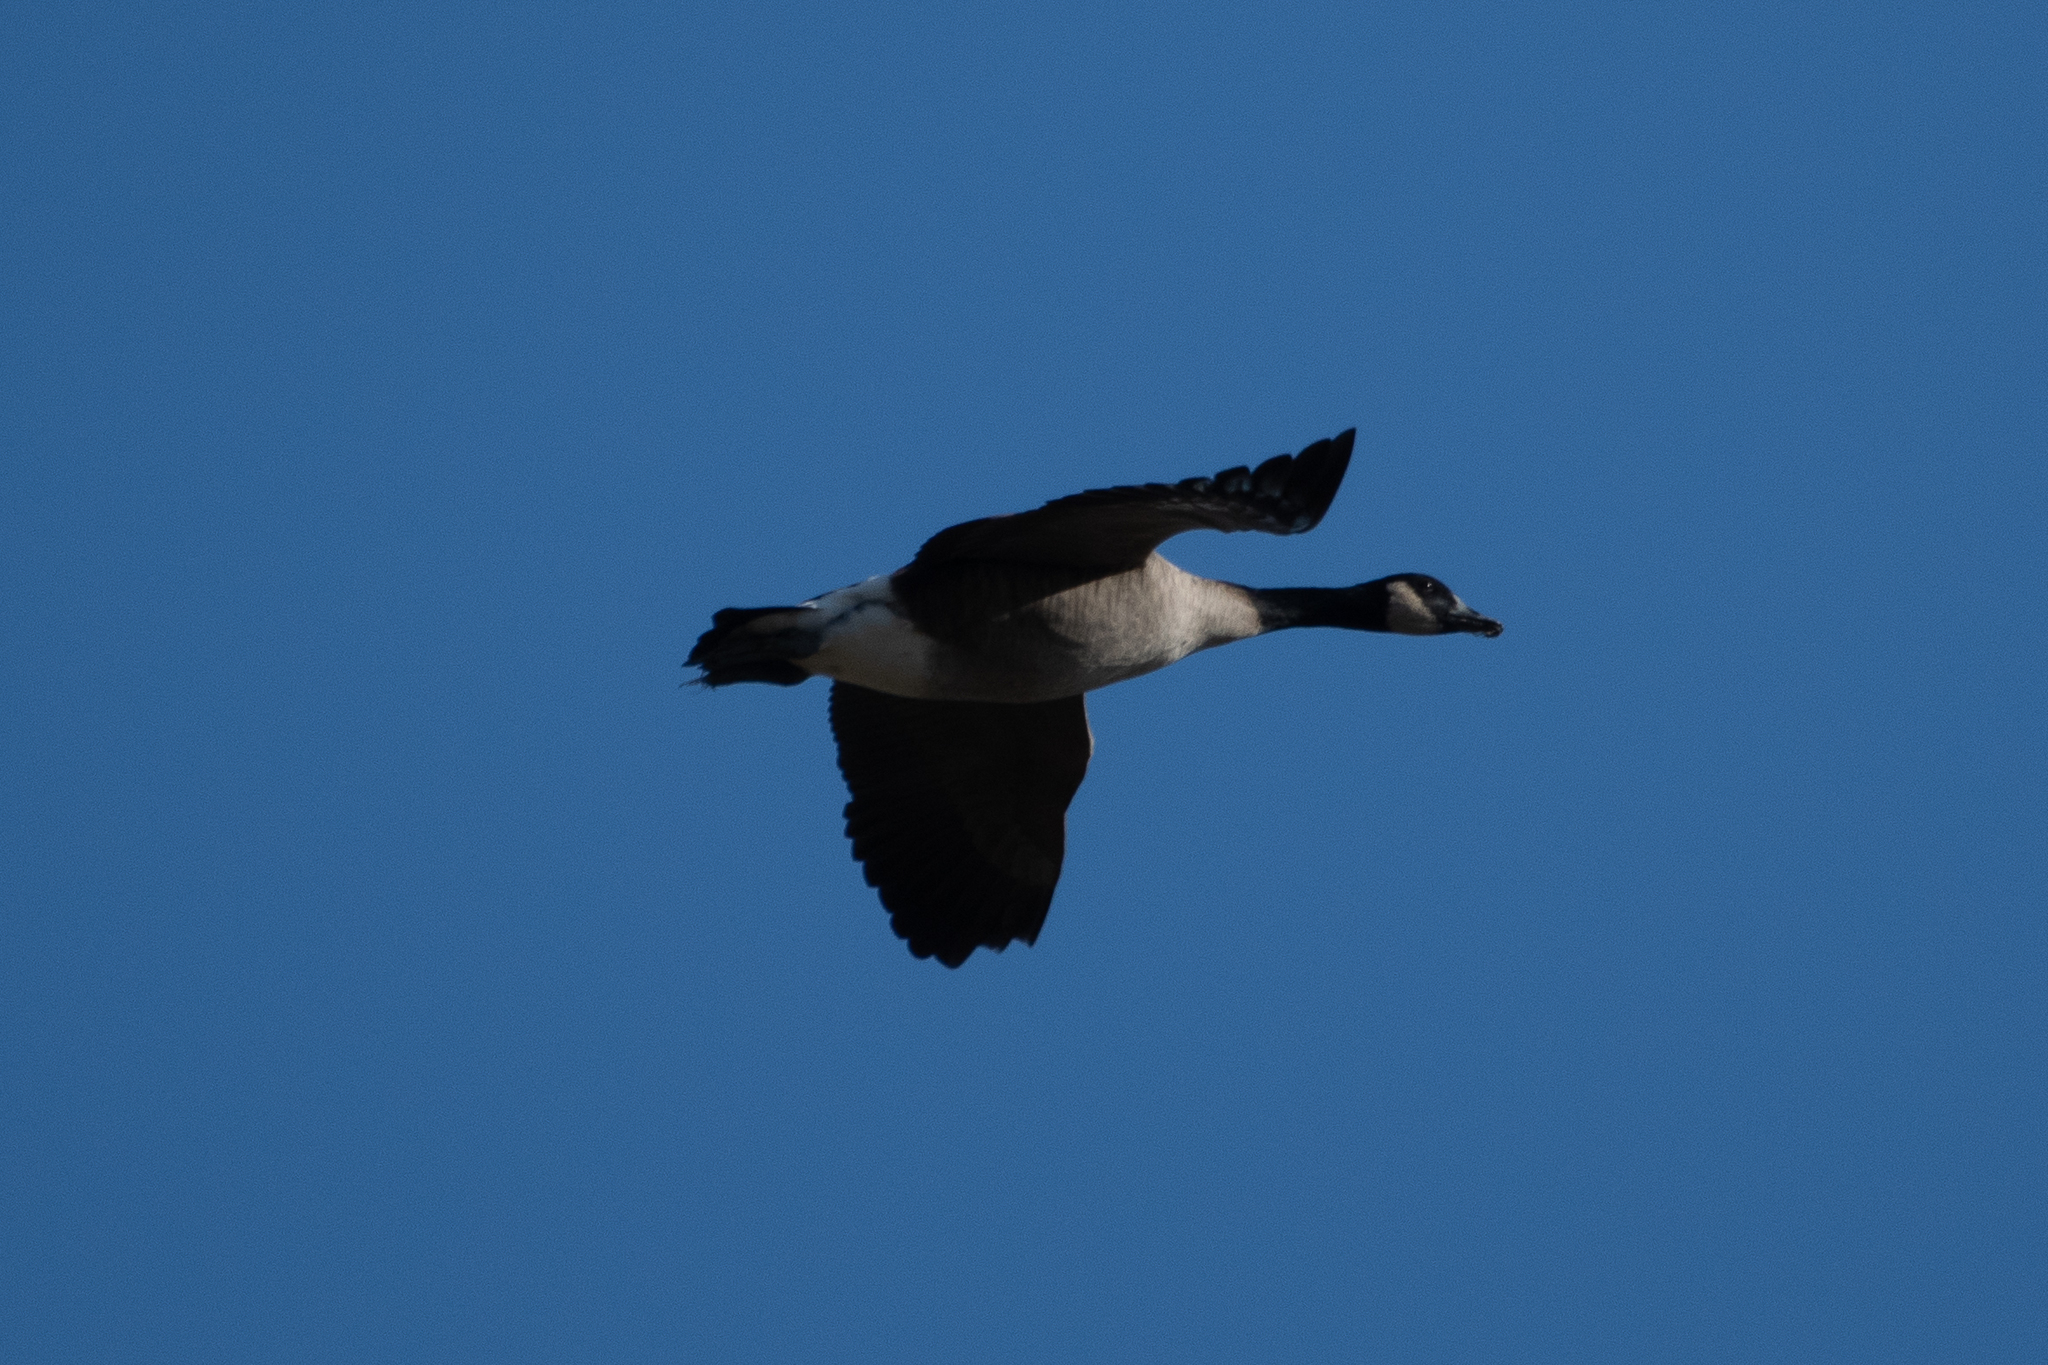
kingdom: Animalia
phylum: Chordata
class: Aves
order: Anseriformes
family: Anatidae
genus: Branta
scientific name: Branta canadensis
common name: Canada goose
